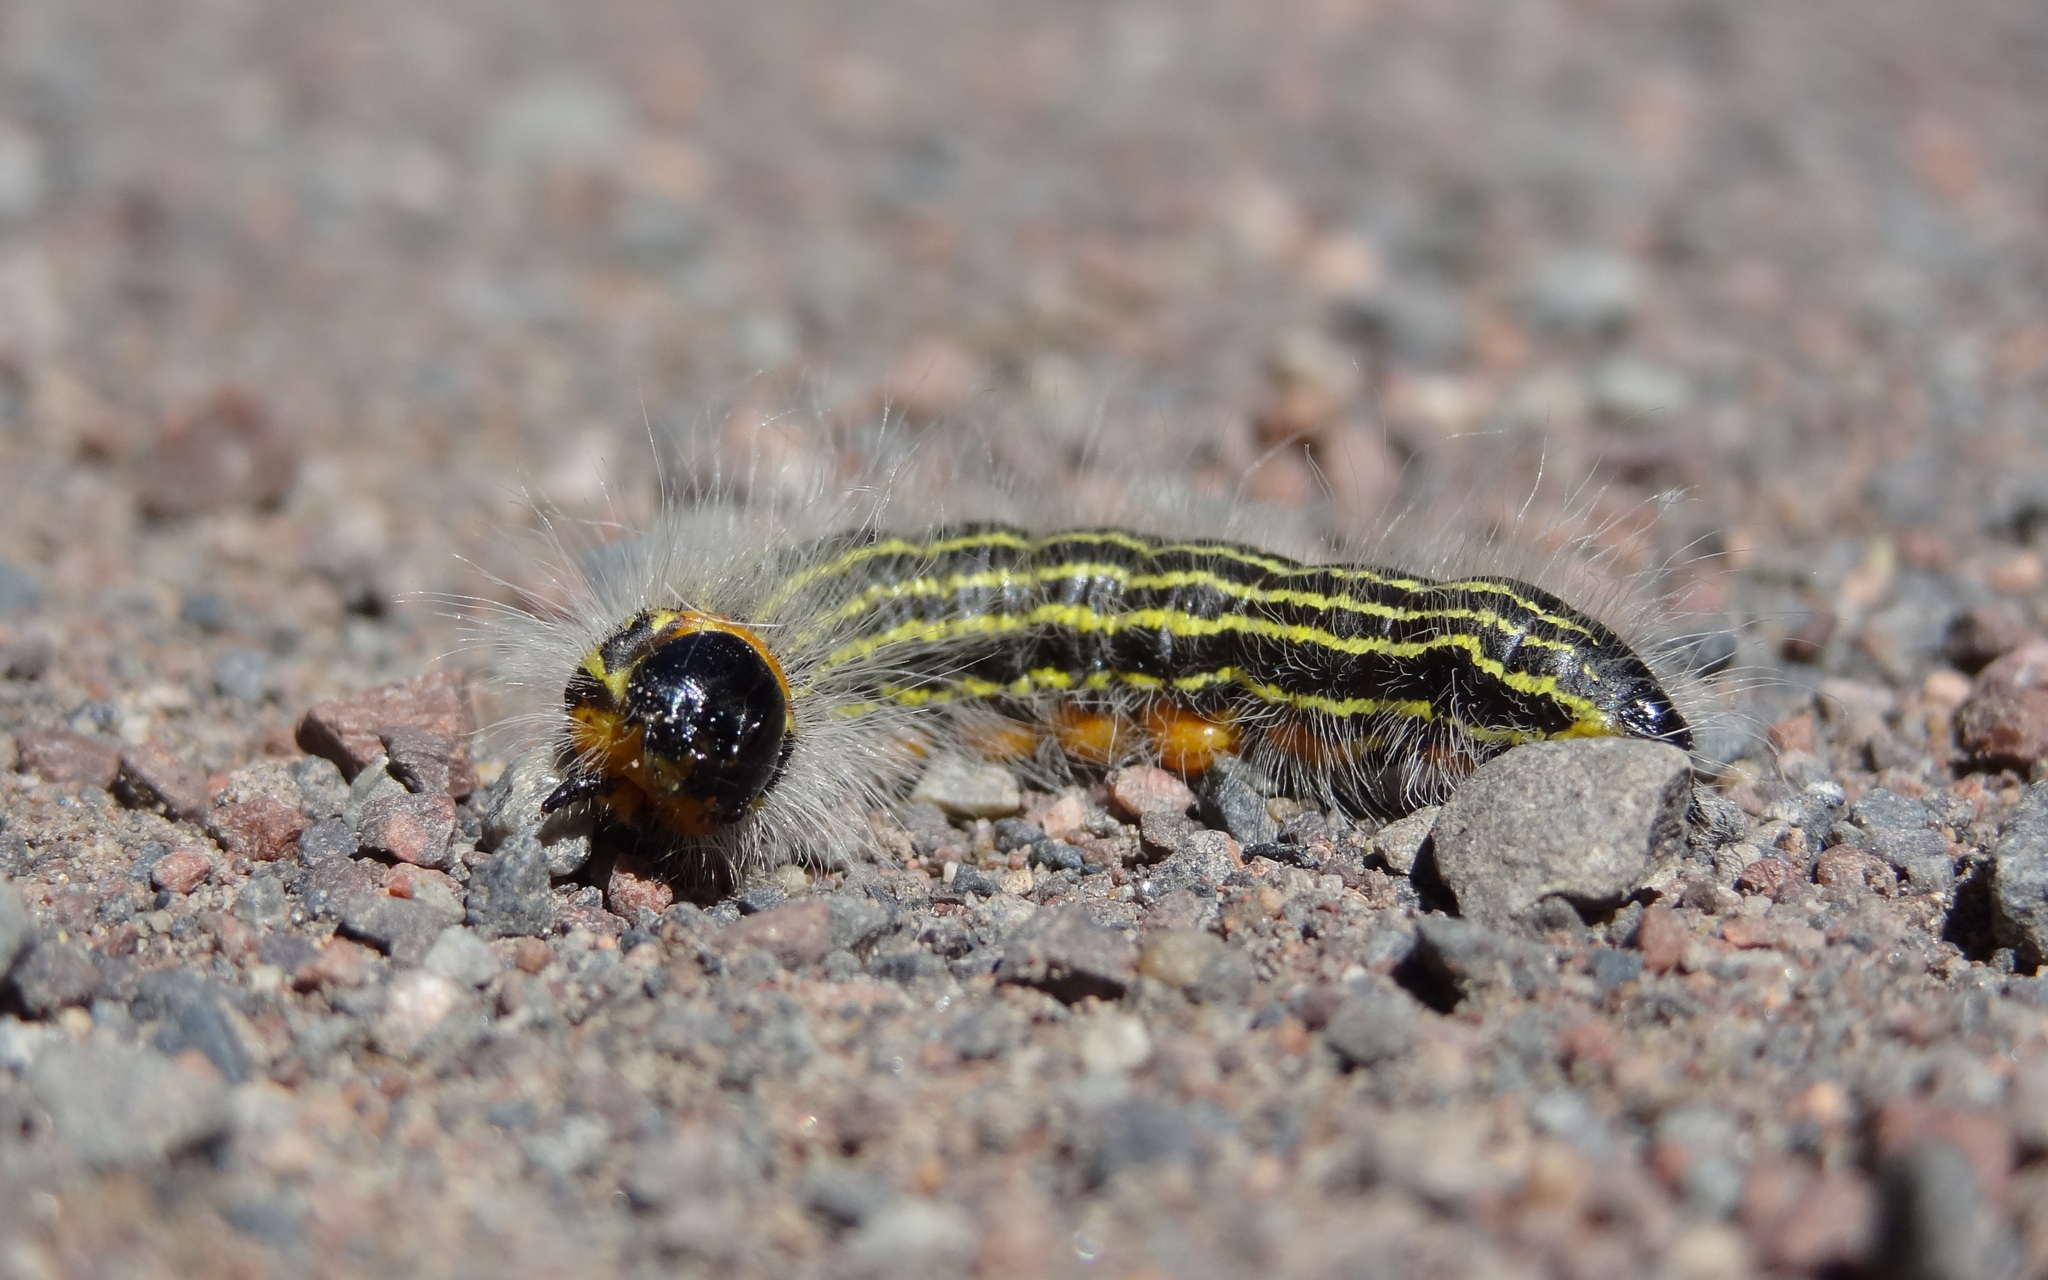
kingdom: Animalia
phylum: Arthropoda
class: Insecta
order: Lepidoptera
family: Notodontidae
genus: Datana
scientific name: Datana ministra
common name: Yellow-necked caterpillar moth
